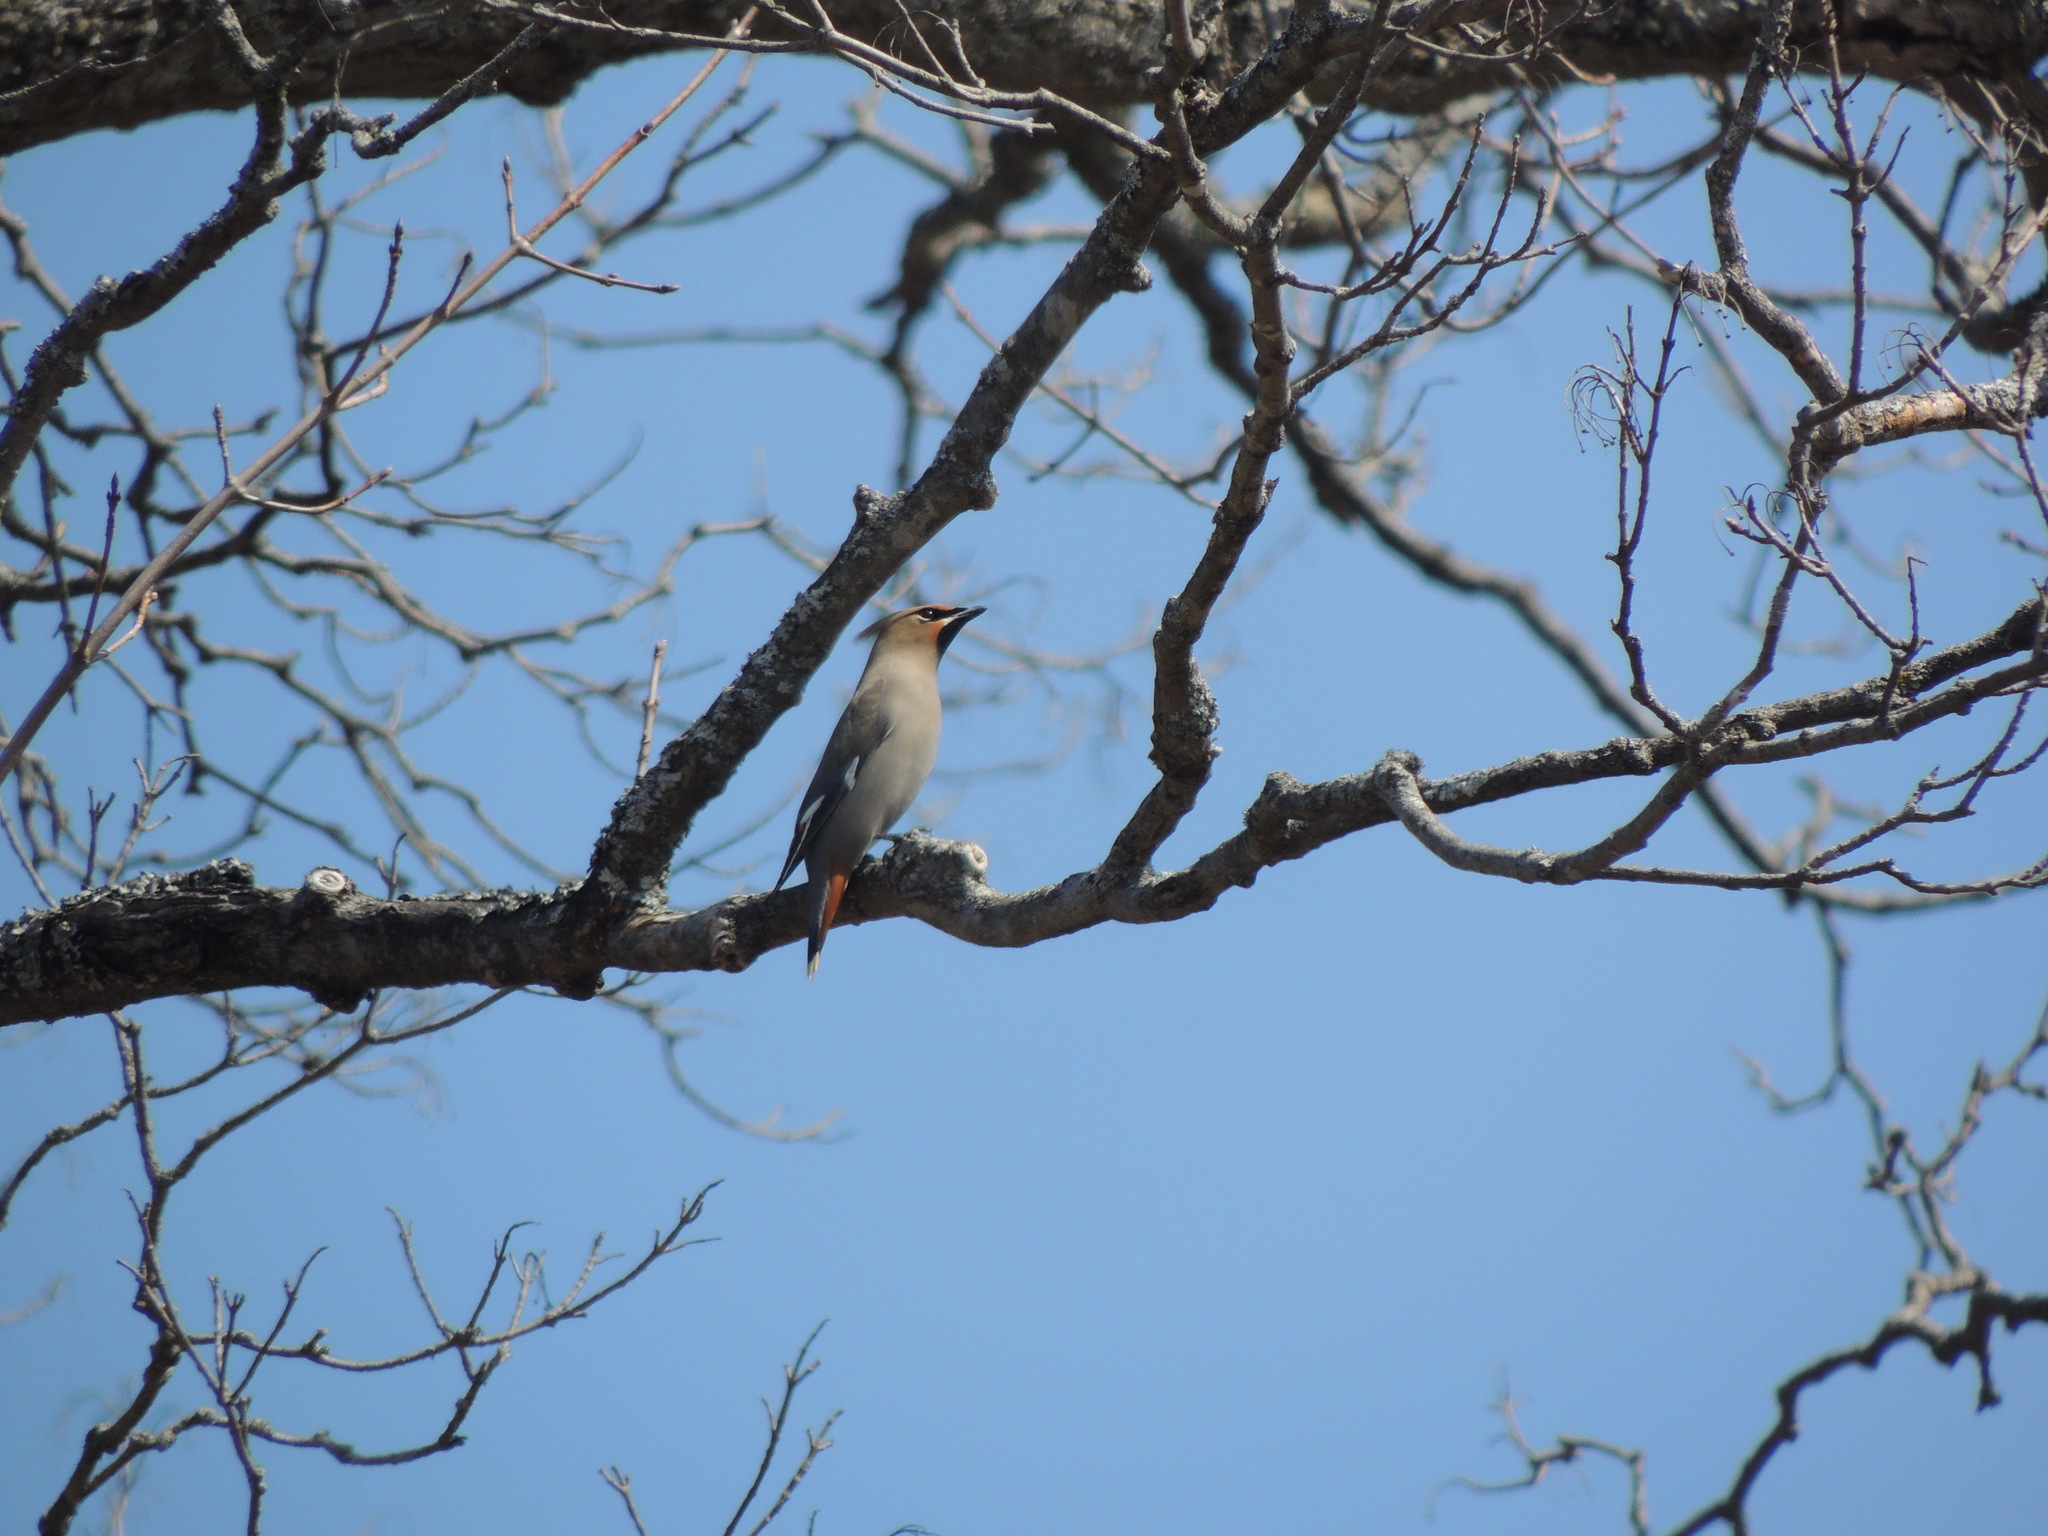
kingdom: Animalia
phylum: Chordata
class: Aves
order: Passeriformes
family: Bombycillidae
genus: Bombycilla
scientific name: Bombycilla garrulus
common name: Bohemian waxwing
